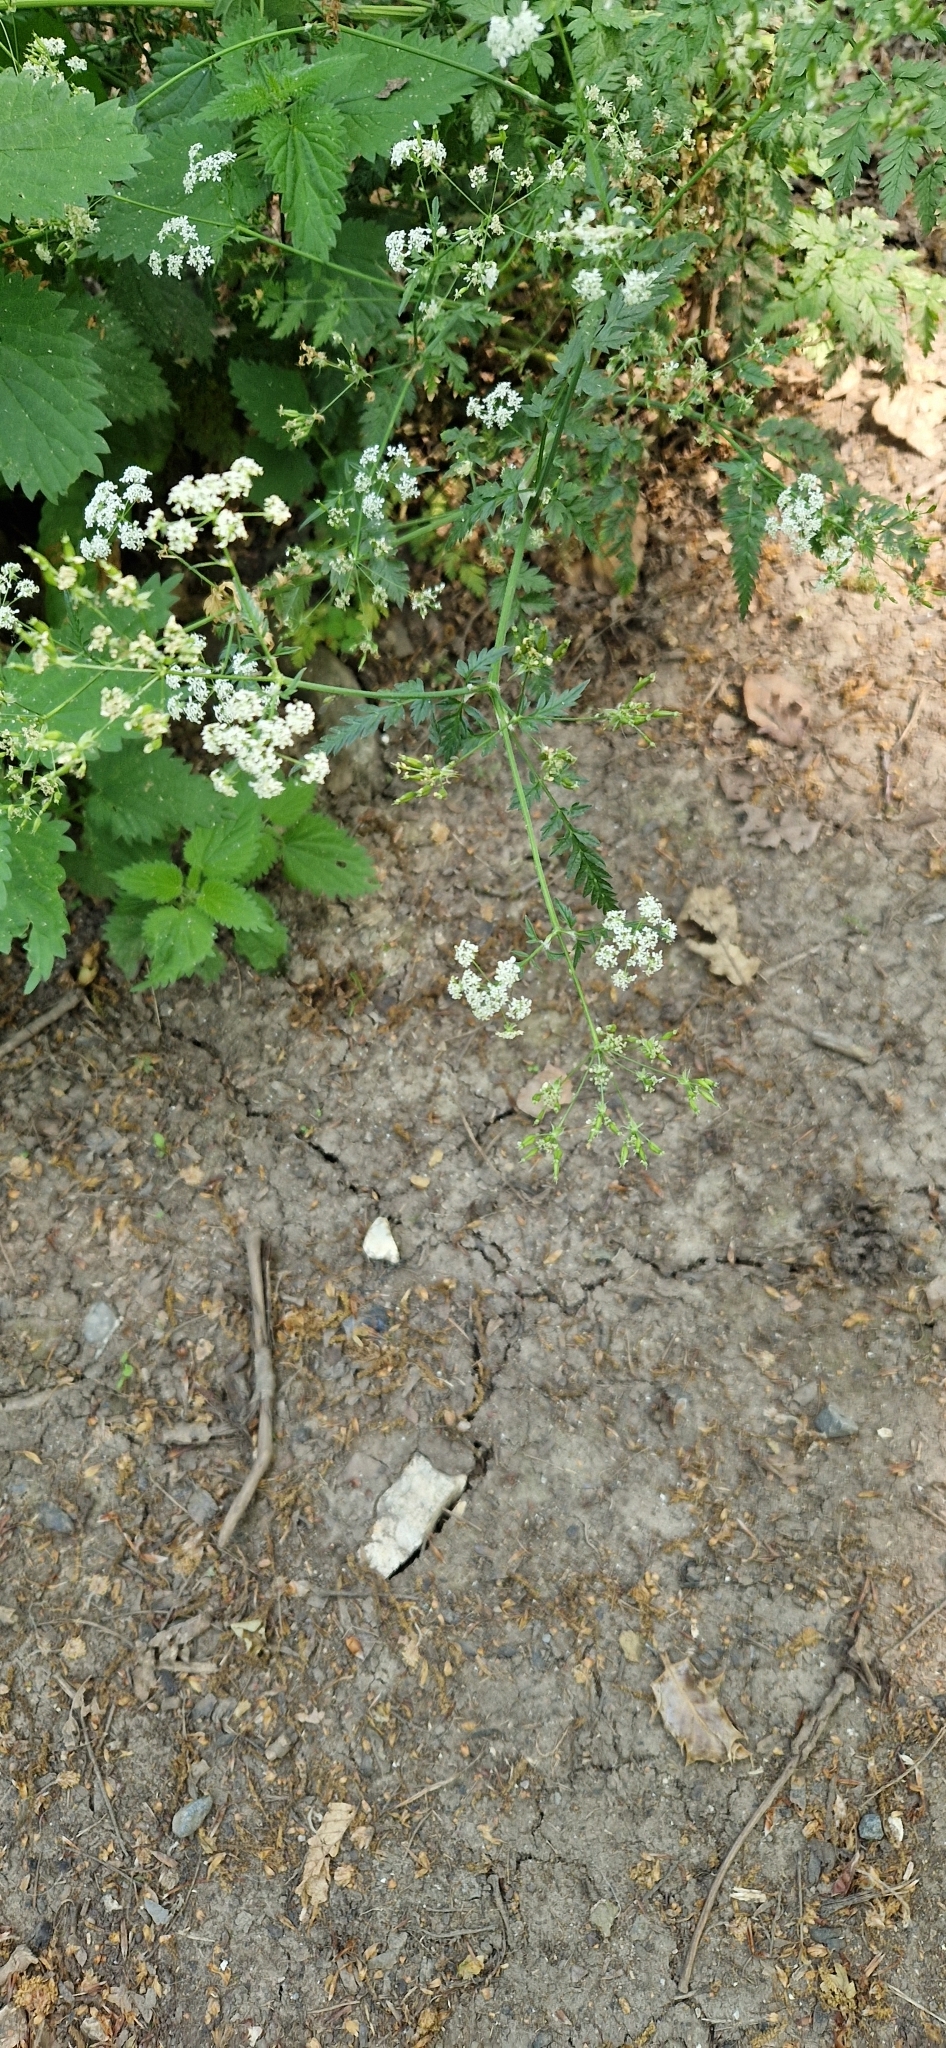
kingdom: Plantae
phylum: Tracheophyta
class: Magnoliopsida
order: Apiales
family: Apiaceae
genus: Anthriscus
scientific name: Anthriscus sylvestris
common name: Cow parsley
